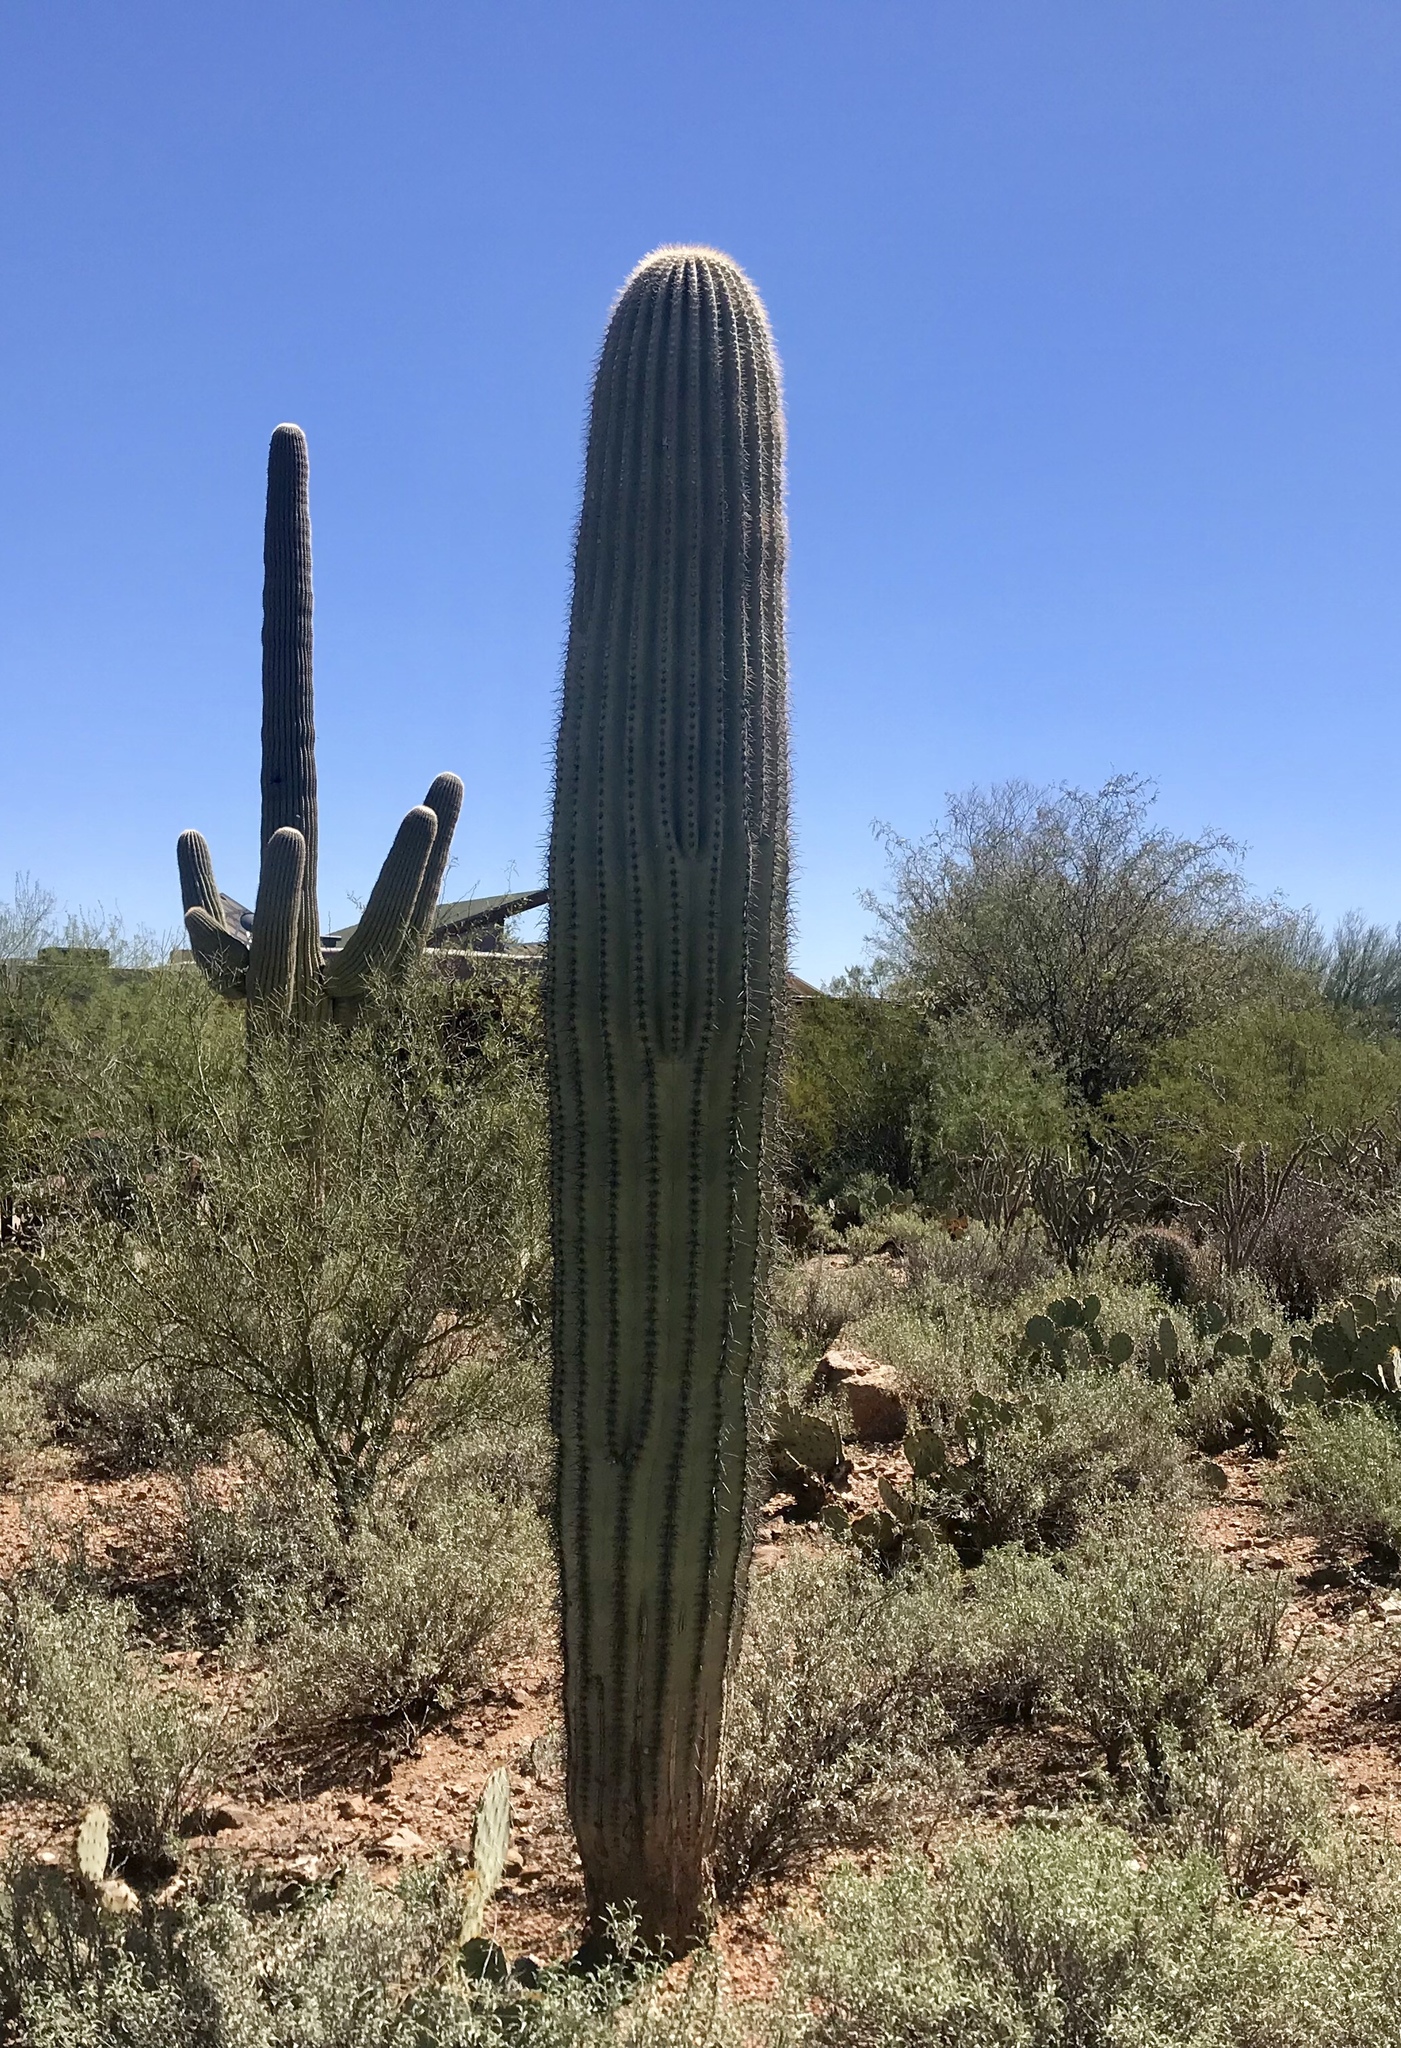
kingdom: Plantae
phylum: Tracheophyta
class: Magnoliopsida
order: Caryophyllales
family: Cactaceae
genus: Carnegiea
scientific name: Carnegiea gigantea
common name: Saguaro
